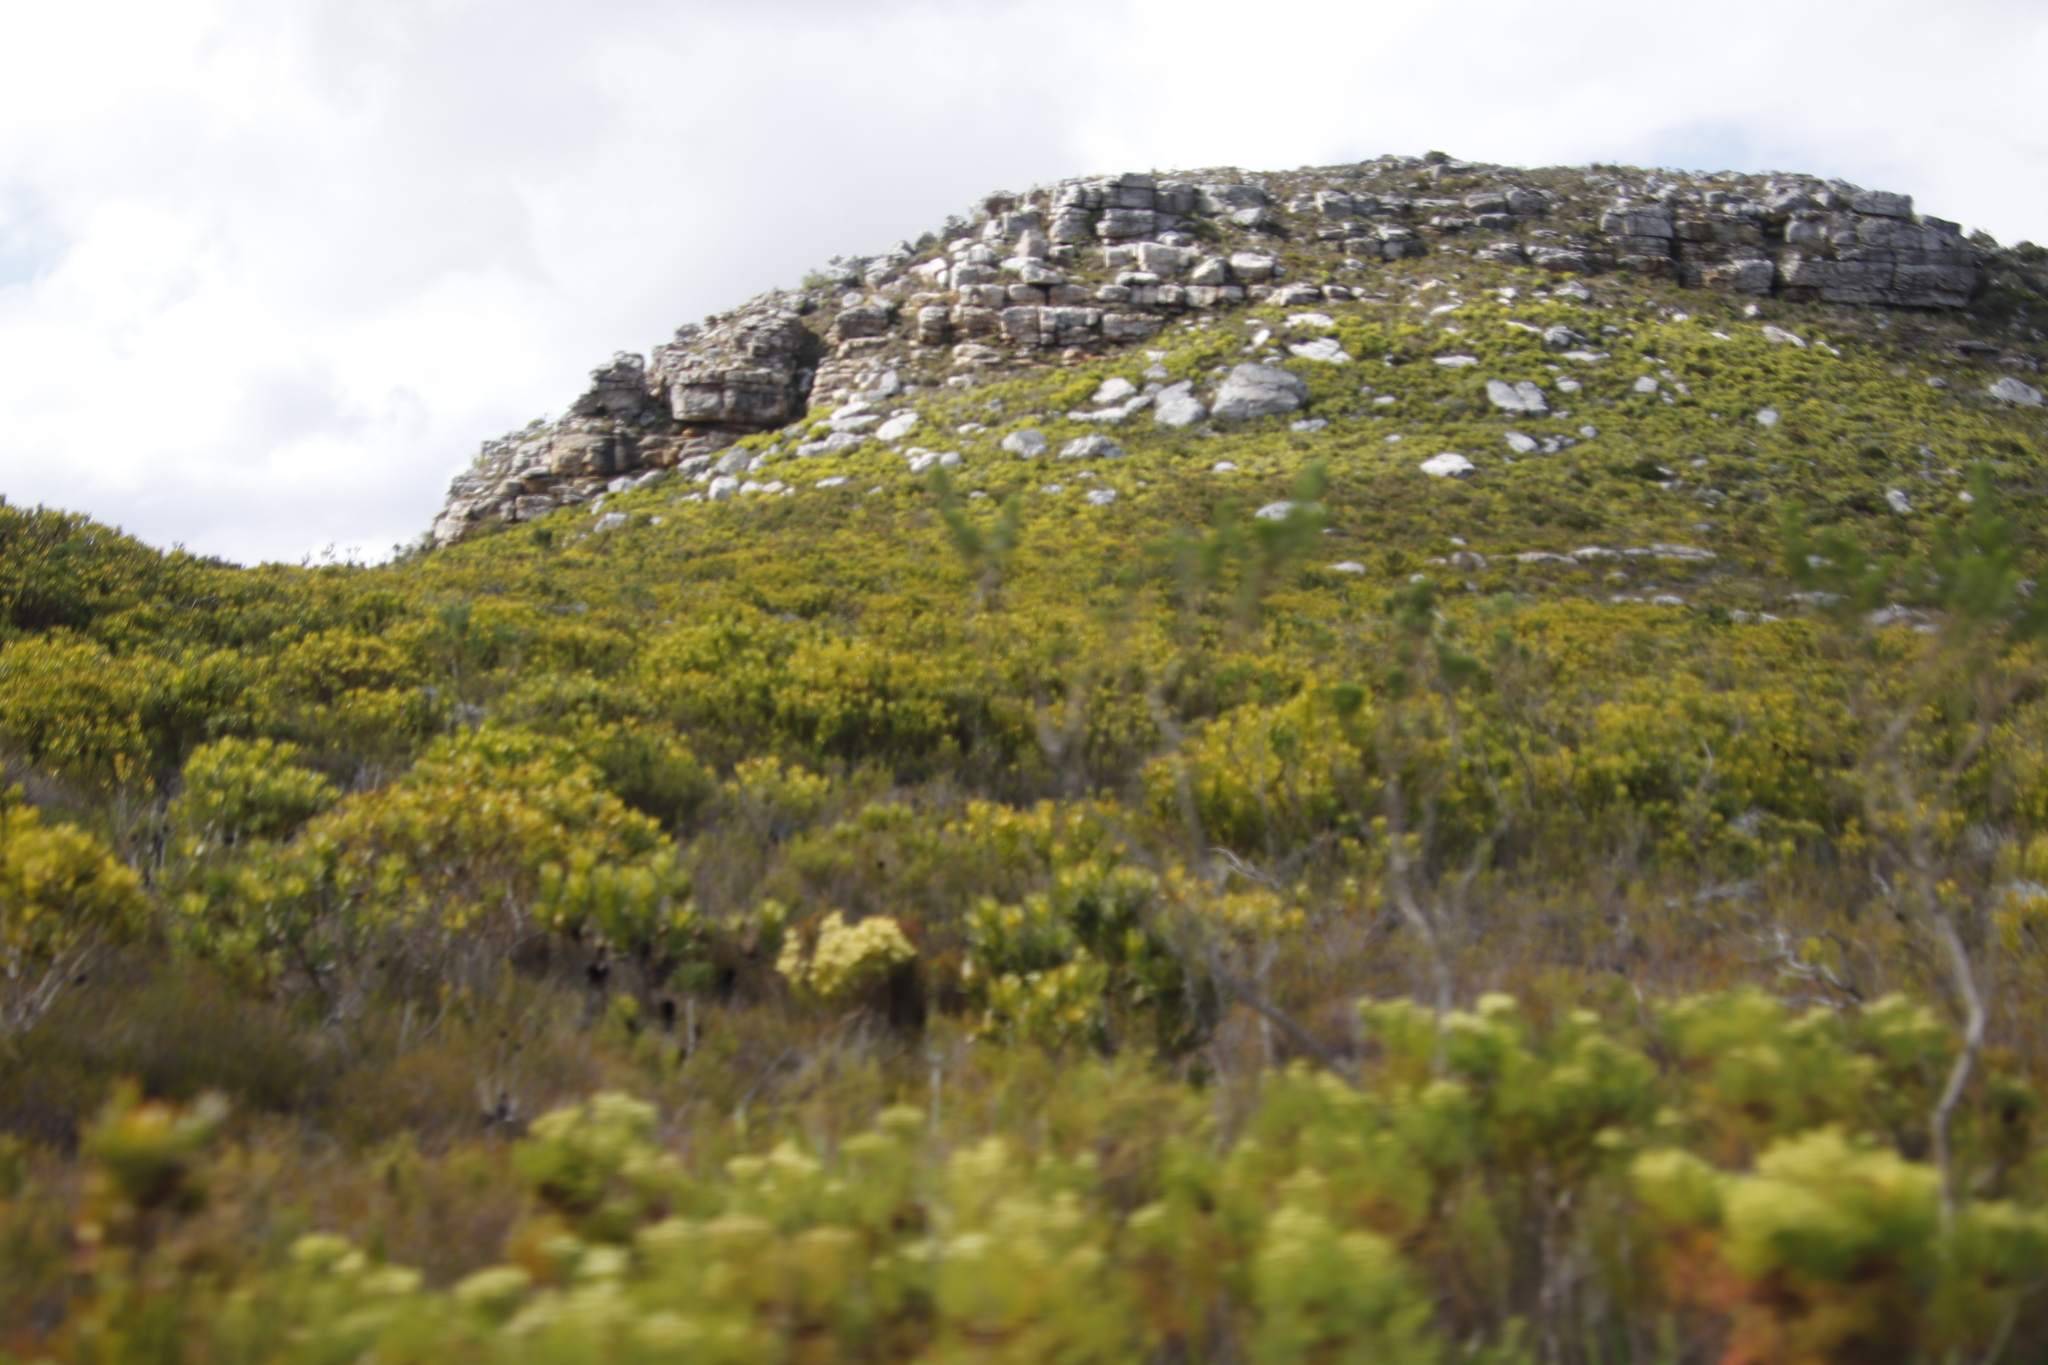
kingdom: Plantae
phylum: Tracheophyta
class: Magnoliopsida
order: Proteales
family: Proteaceae
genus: Leucadendron
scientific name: Leucadendron xanthoconus
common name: Sickle-leaf conebush
